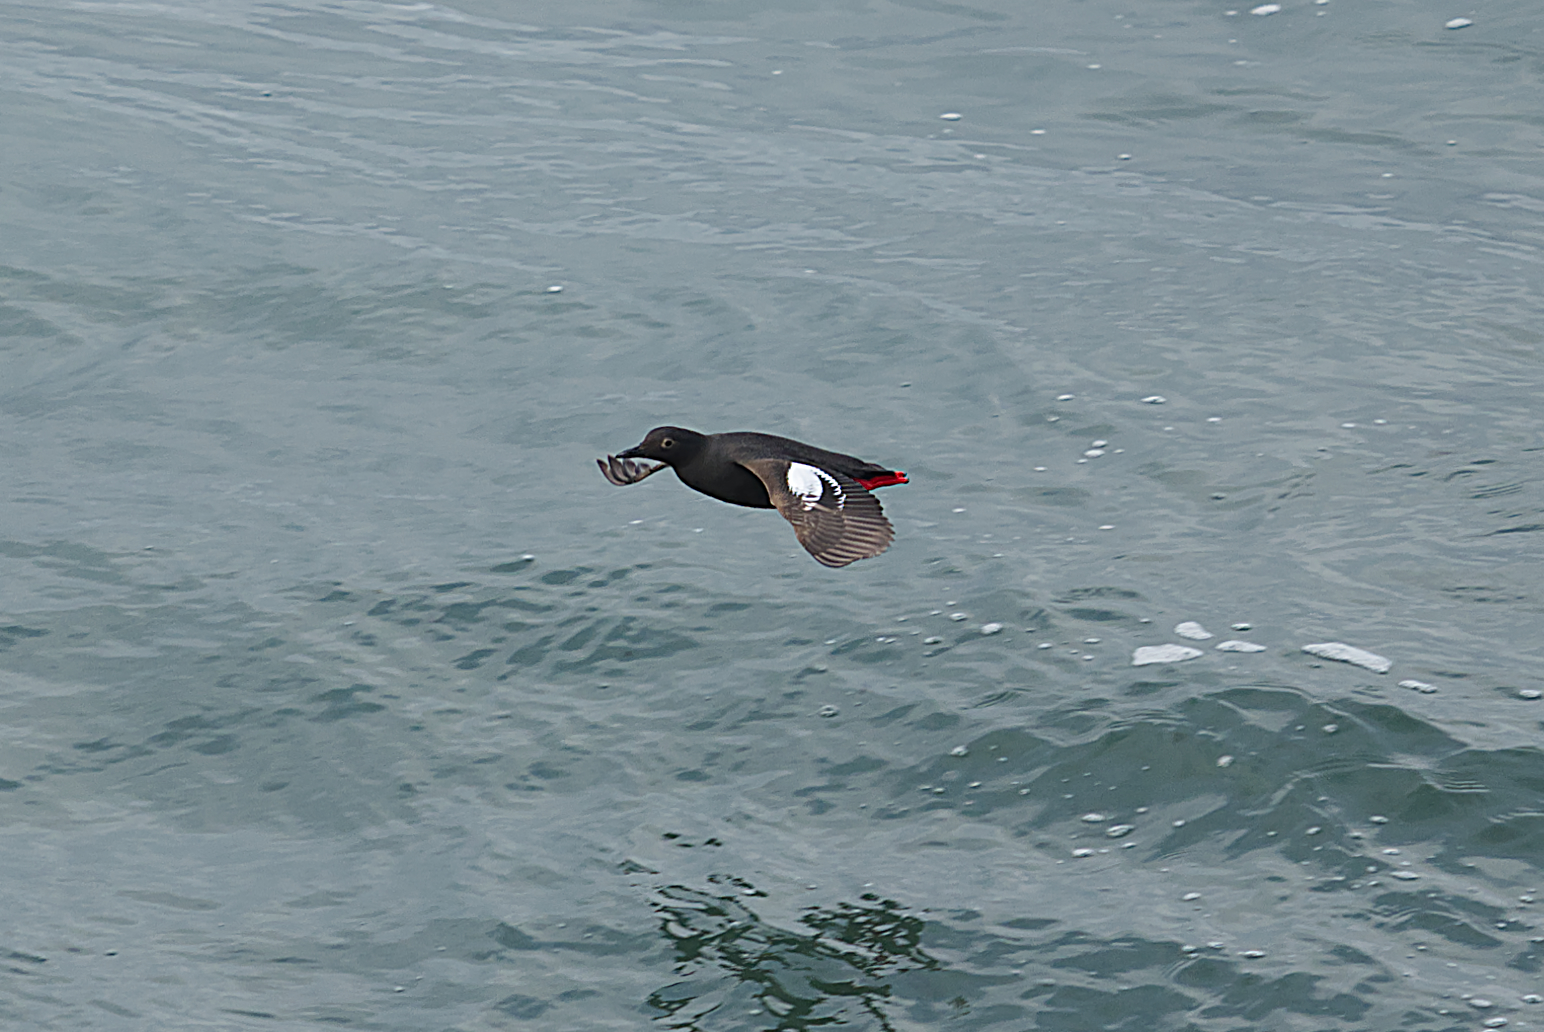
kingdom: Animalia
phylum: Chordata
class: Aves
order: Charadriiformes
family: Alcidae
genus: Cepphus
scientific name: Cepphus columba
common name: Pigeon guillemot
